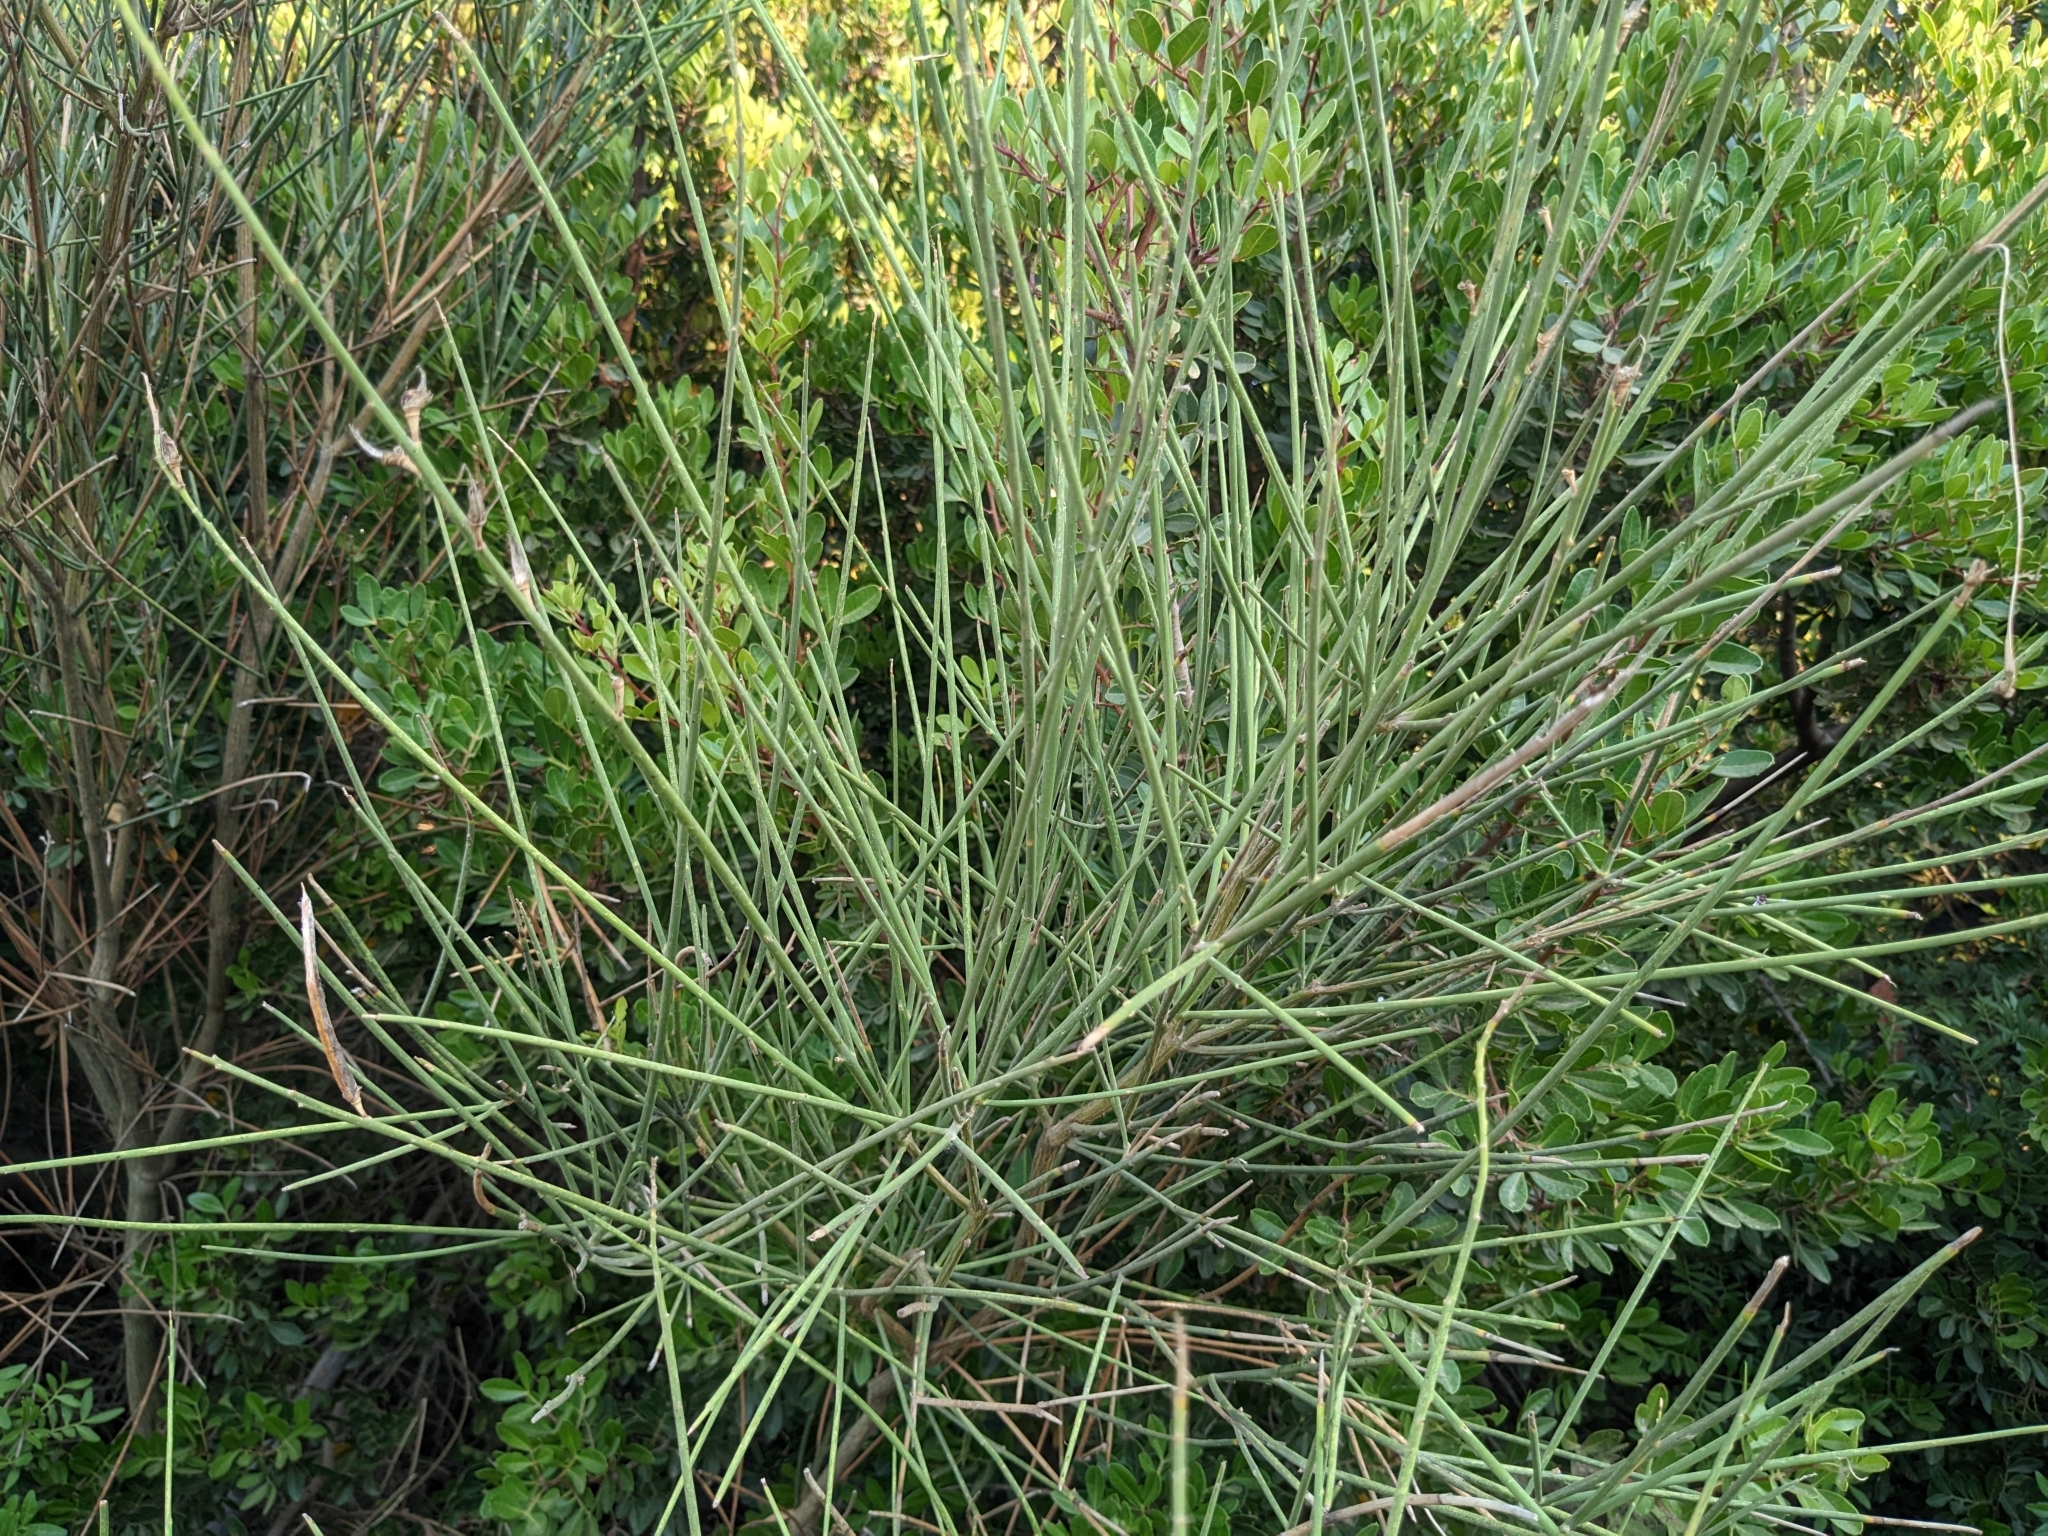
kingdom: Plantae
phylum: Tracheophyta
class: Magnoliopsida
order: Fabales
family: Fabaceae
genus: Spartium
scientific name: Spartium junceum
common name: Spanish broom
